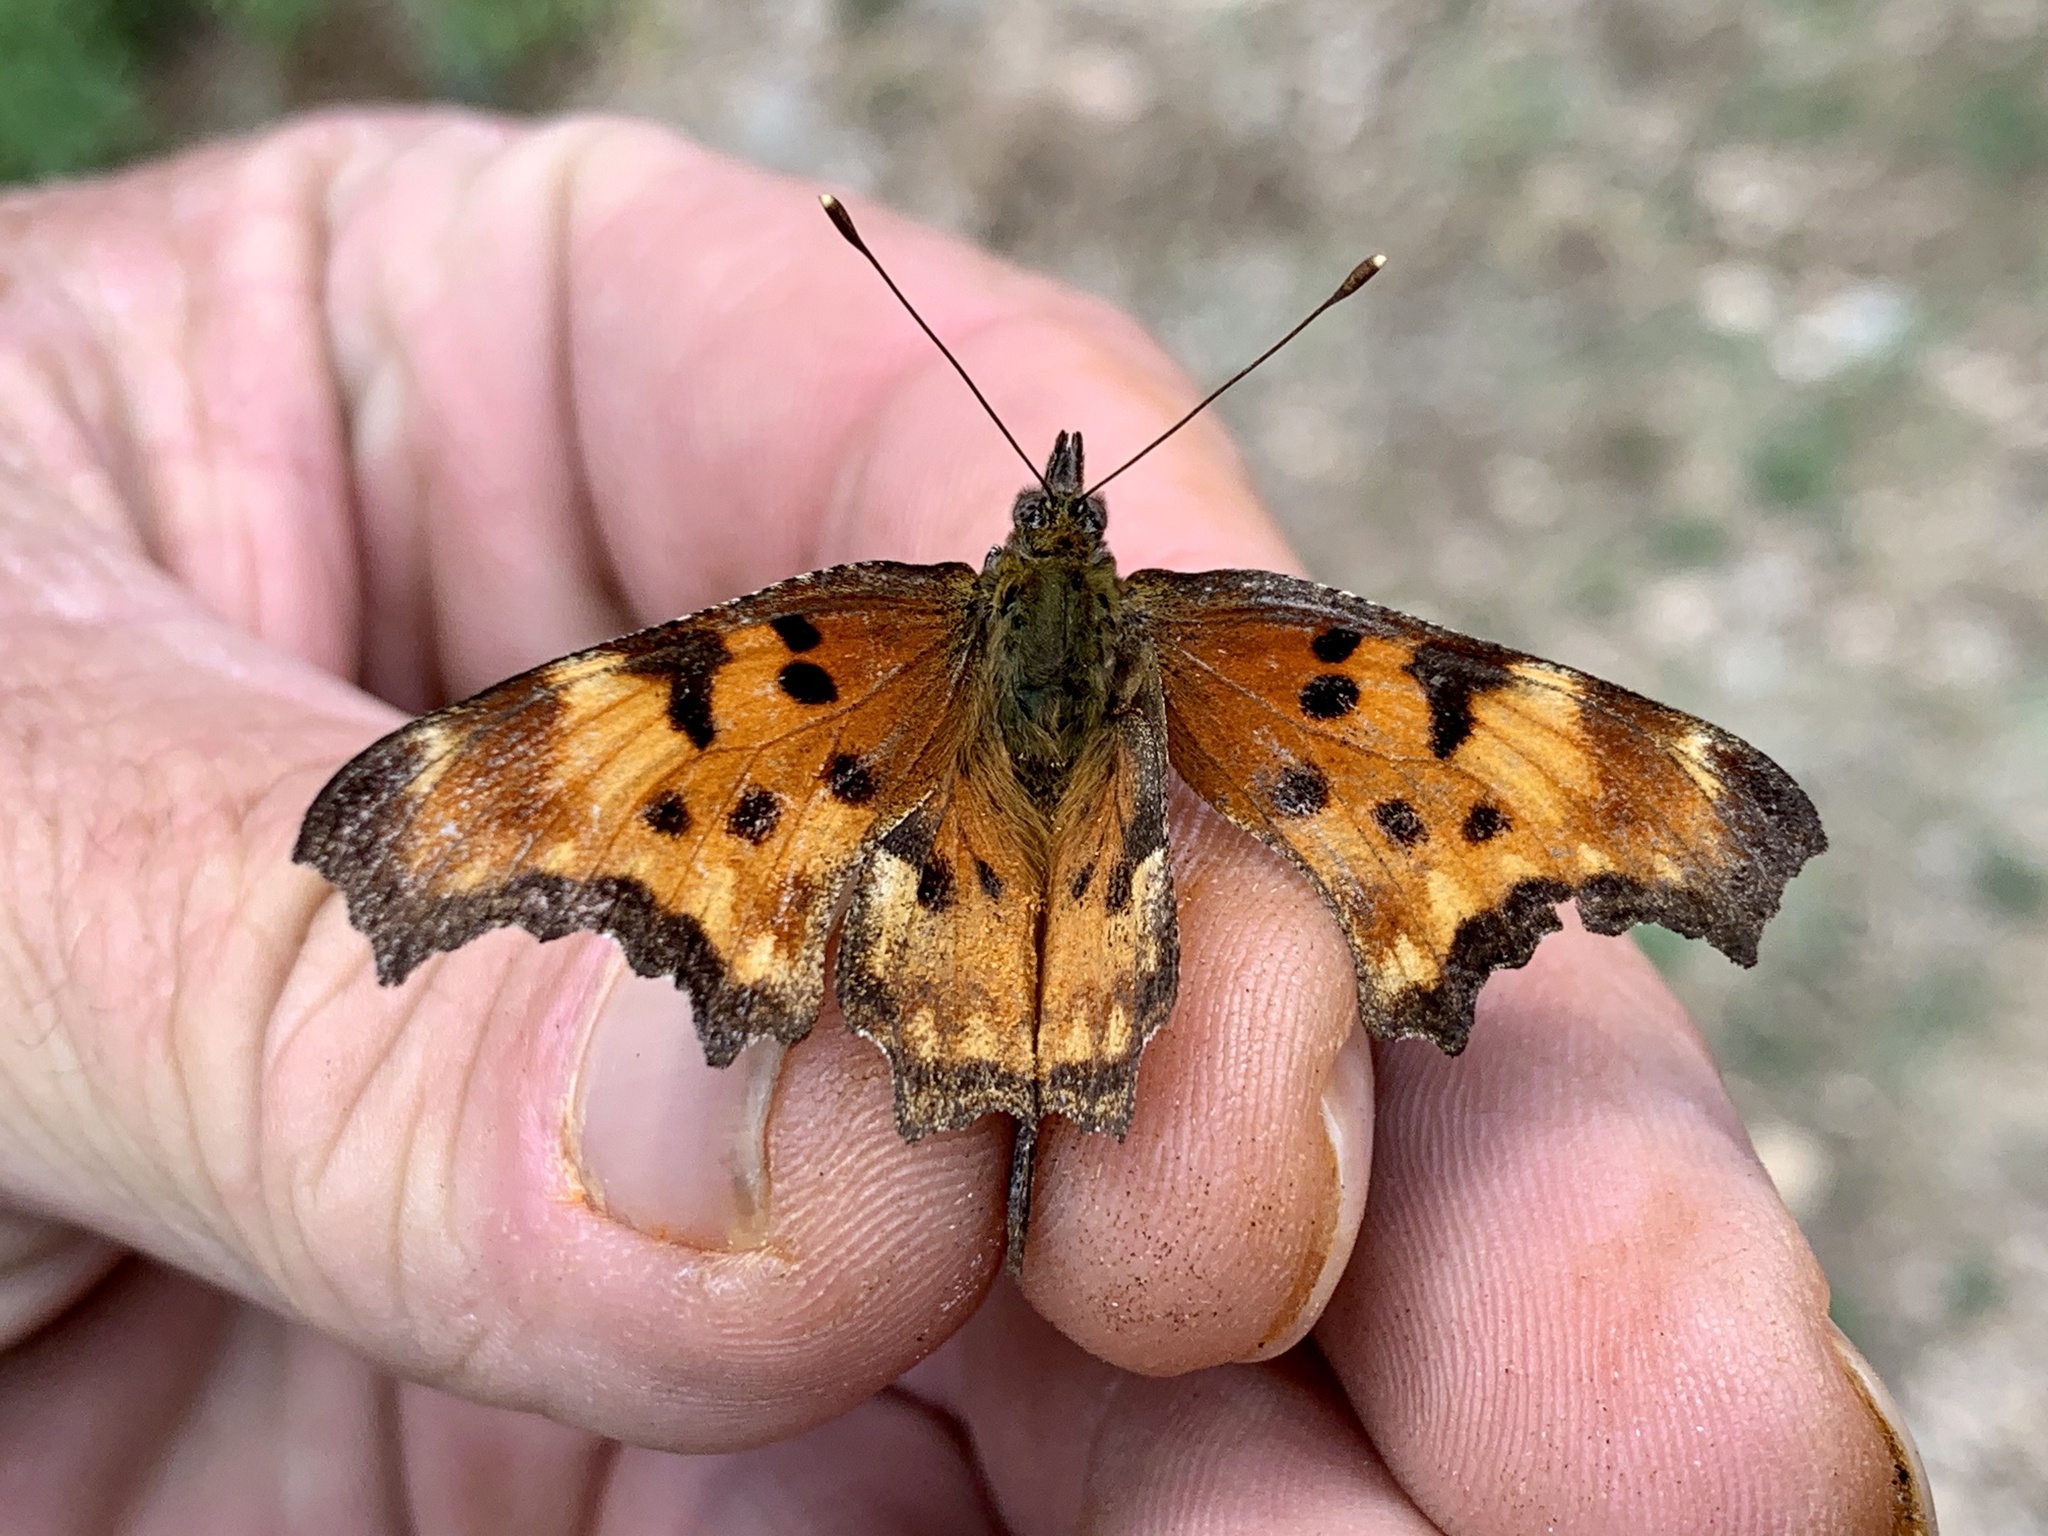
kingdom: Animalia
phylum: Arthropoda
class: Insecta
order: Lepidoptera
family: Nymphalidae
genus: Polygonia
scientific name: Polygonia gracilis
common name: Hoary comma
